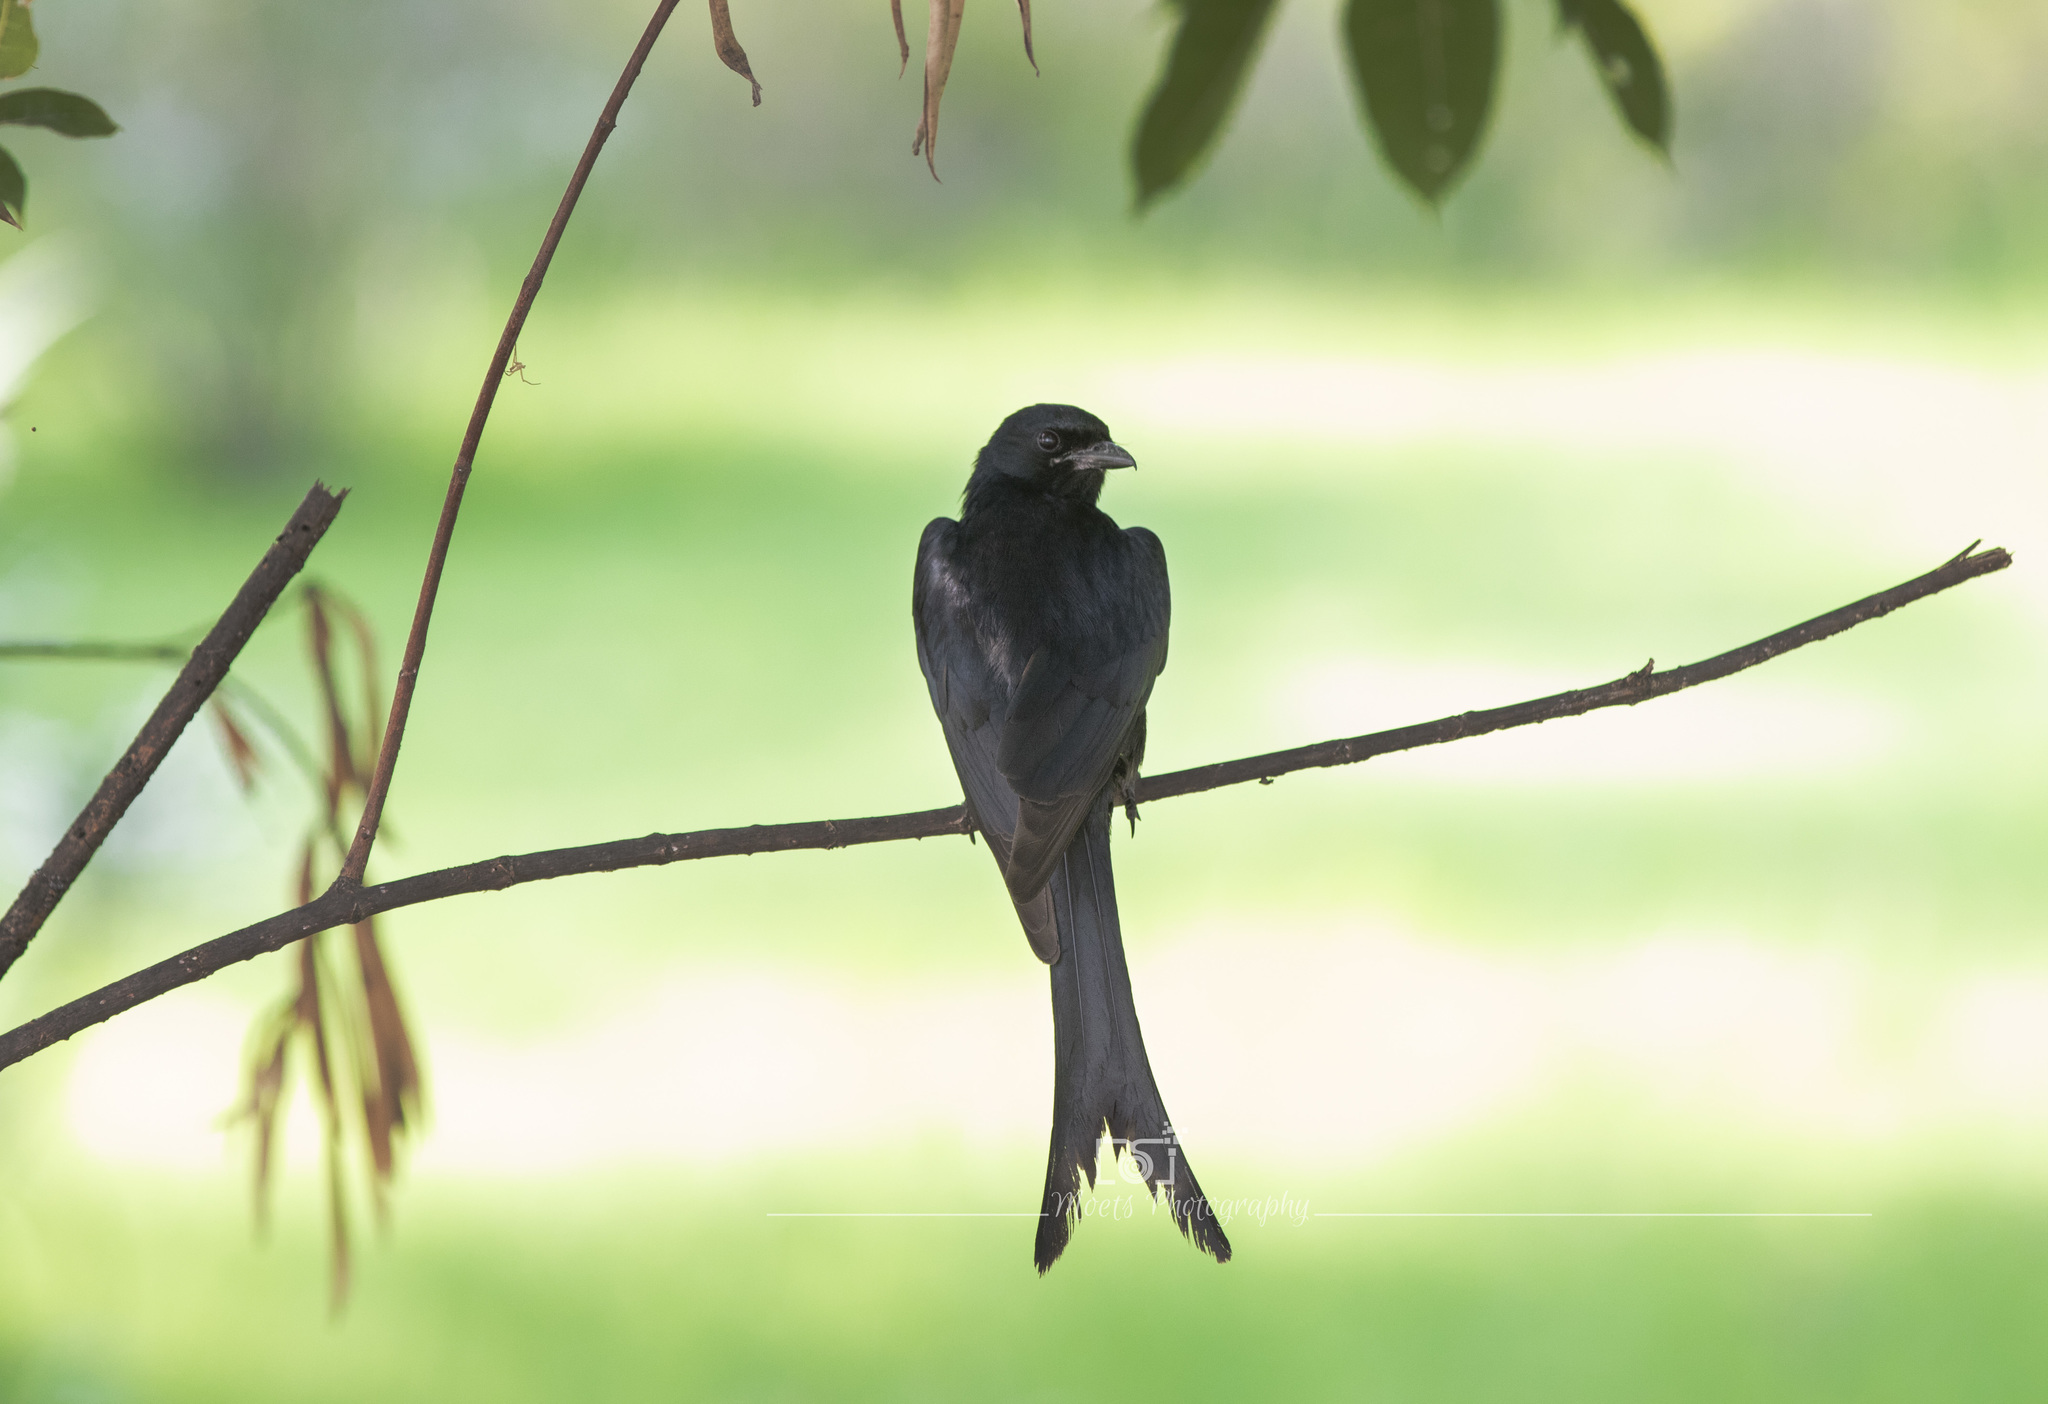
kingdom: Animalia
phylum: Chordata
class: Aves
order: Passeriformes
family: Dicruridae
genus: Dicrurus
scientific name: Dicrurus macrocercus
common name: Black drongo
